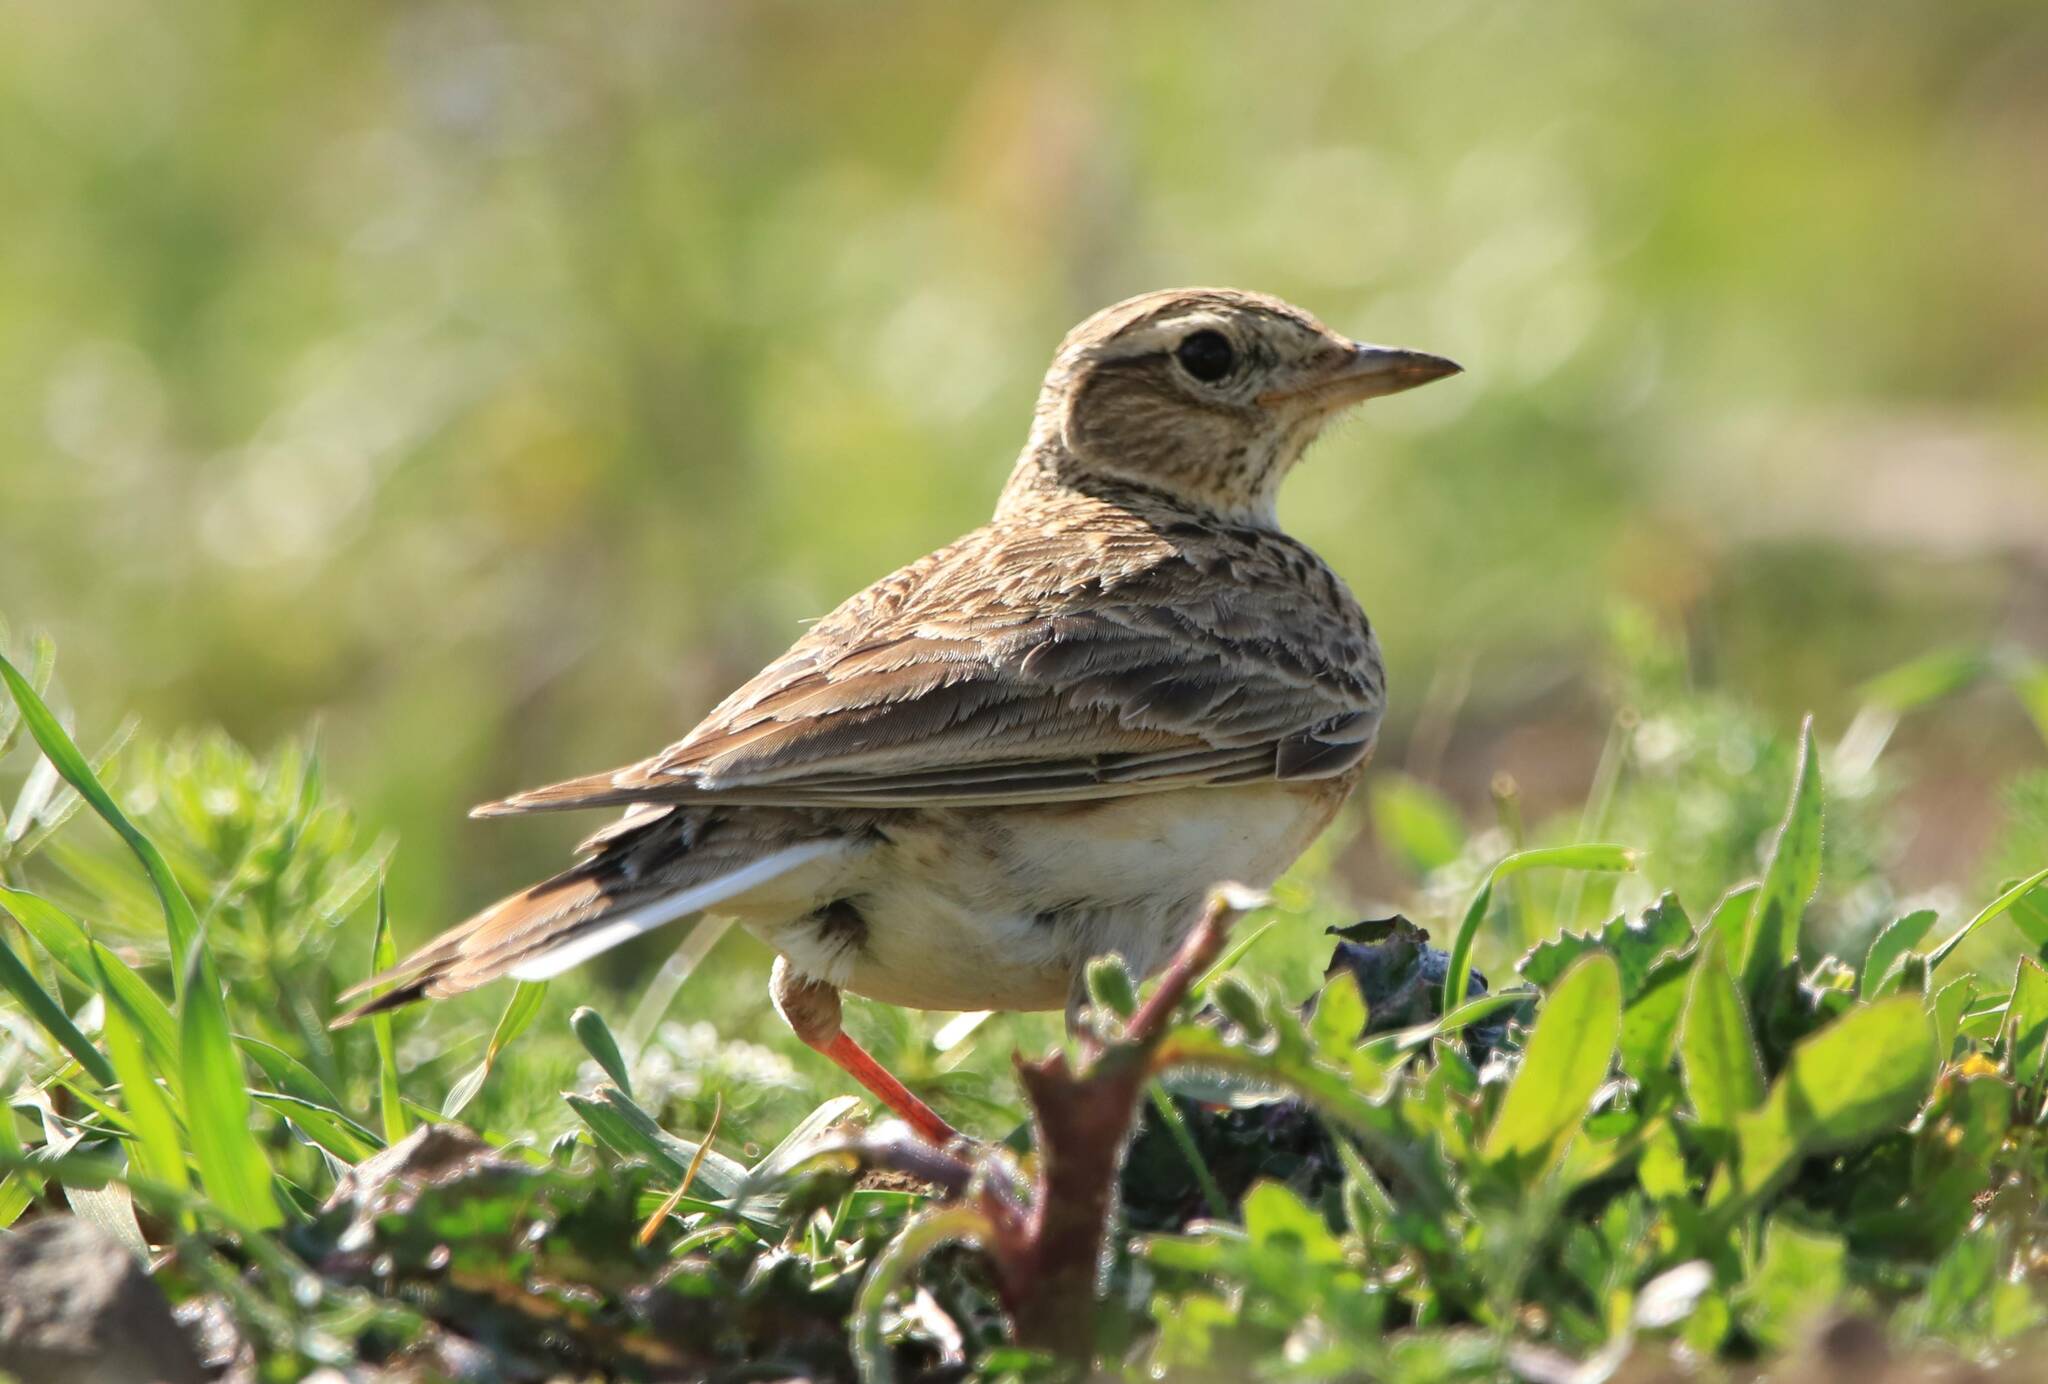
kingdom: Animalia
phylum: Chordata
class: Aves
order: Passeriformes
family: Alaudidae
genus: Calandrella
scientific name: Calandrella brachydactyla
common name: Greater short-toed lark
